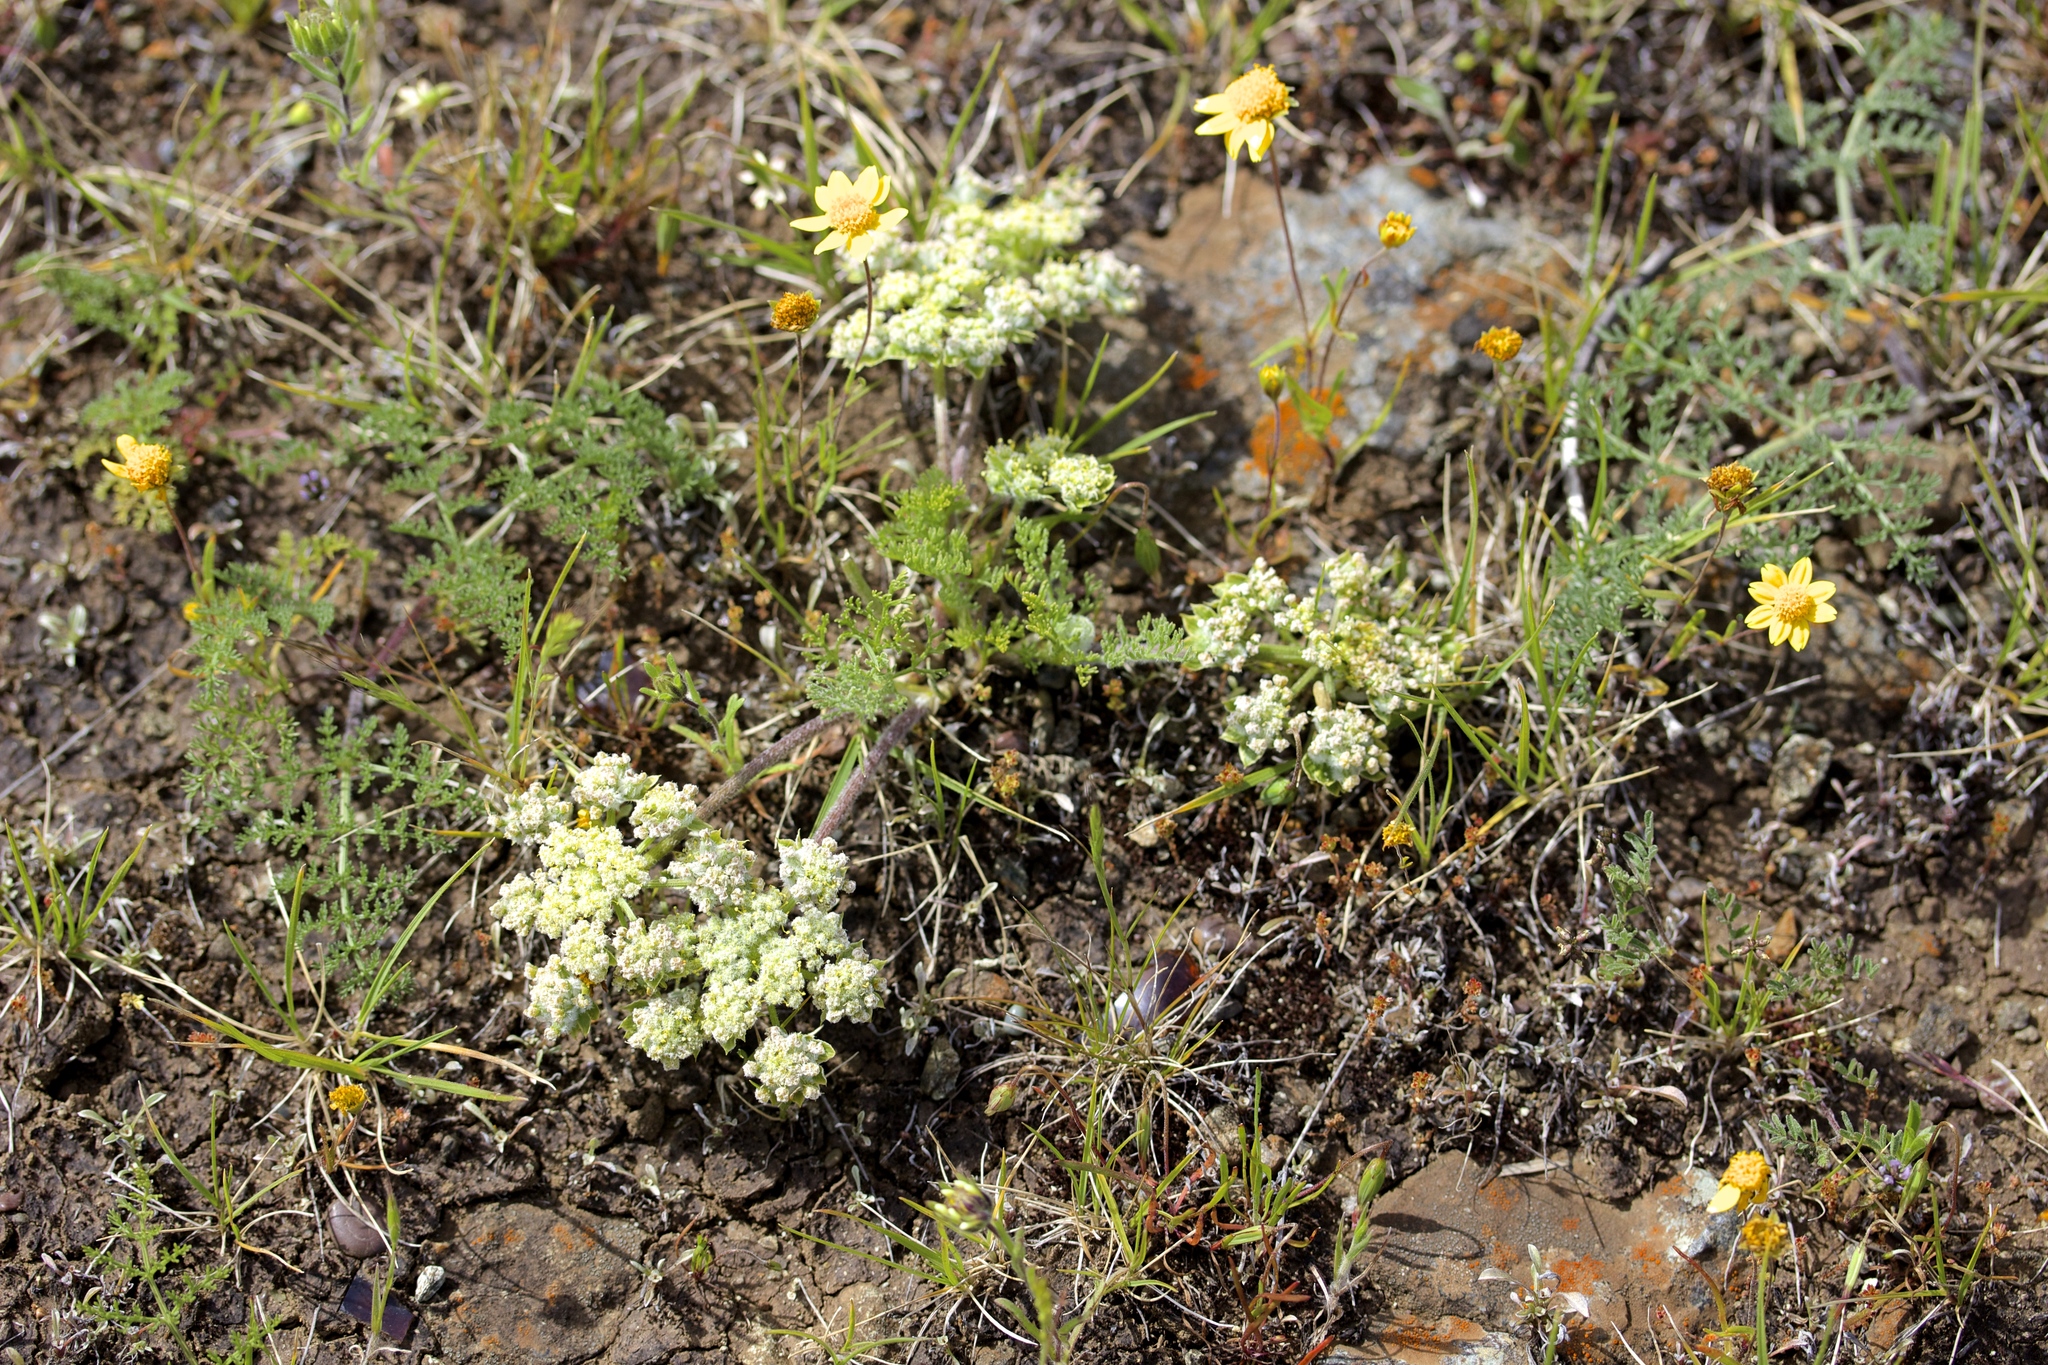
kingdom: Plantae
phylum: Tracheophyta
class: Magnoliopsida
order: Apiales
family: Apiaceae
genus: Lomatium
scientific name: Lomatium dasycarpum
